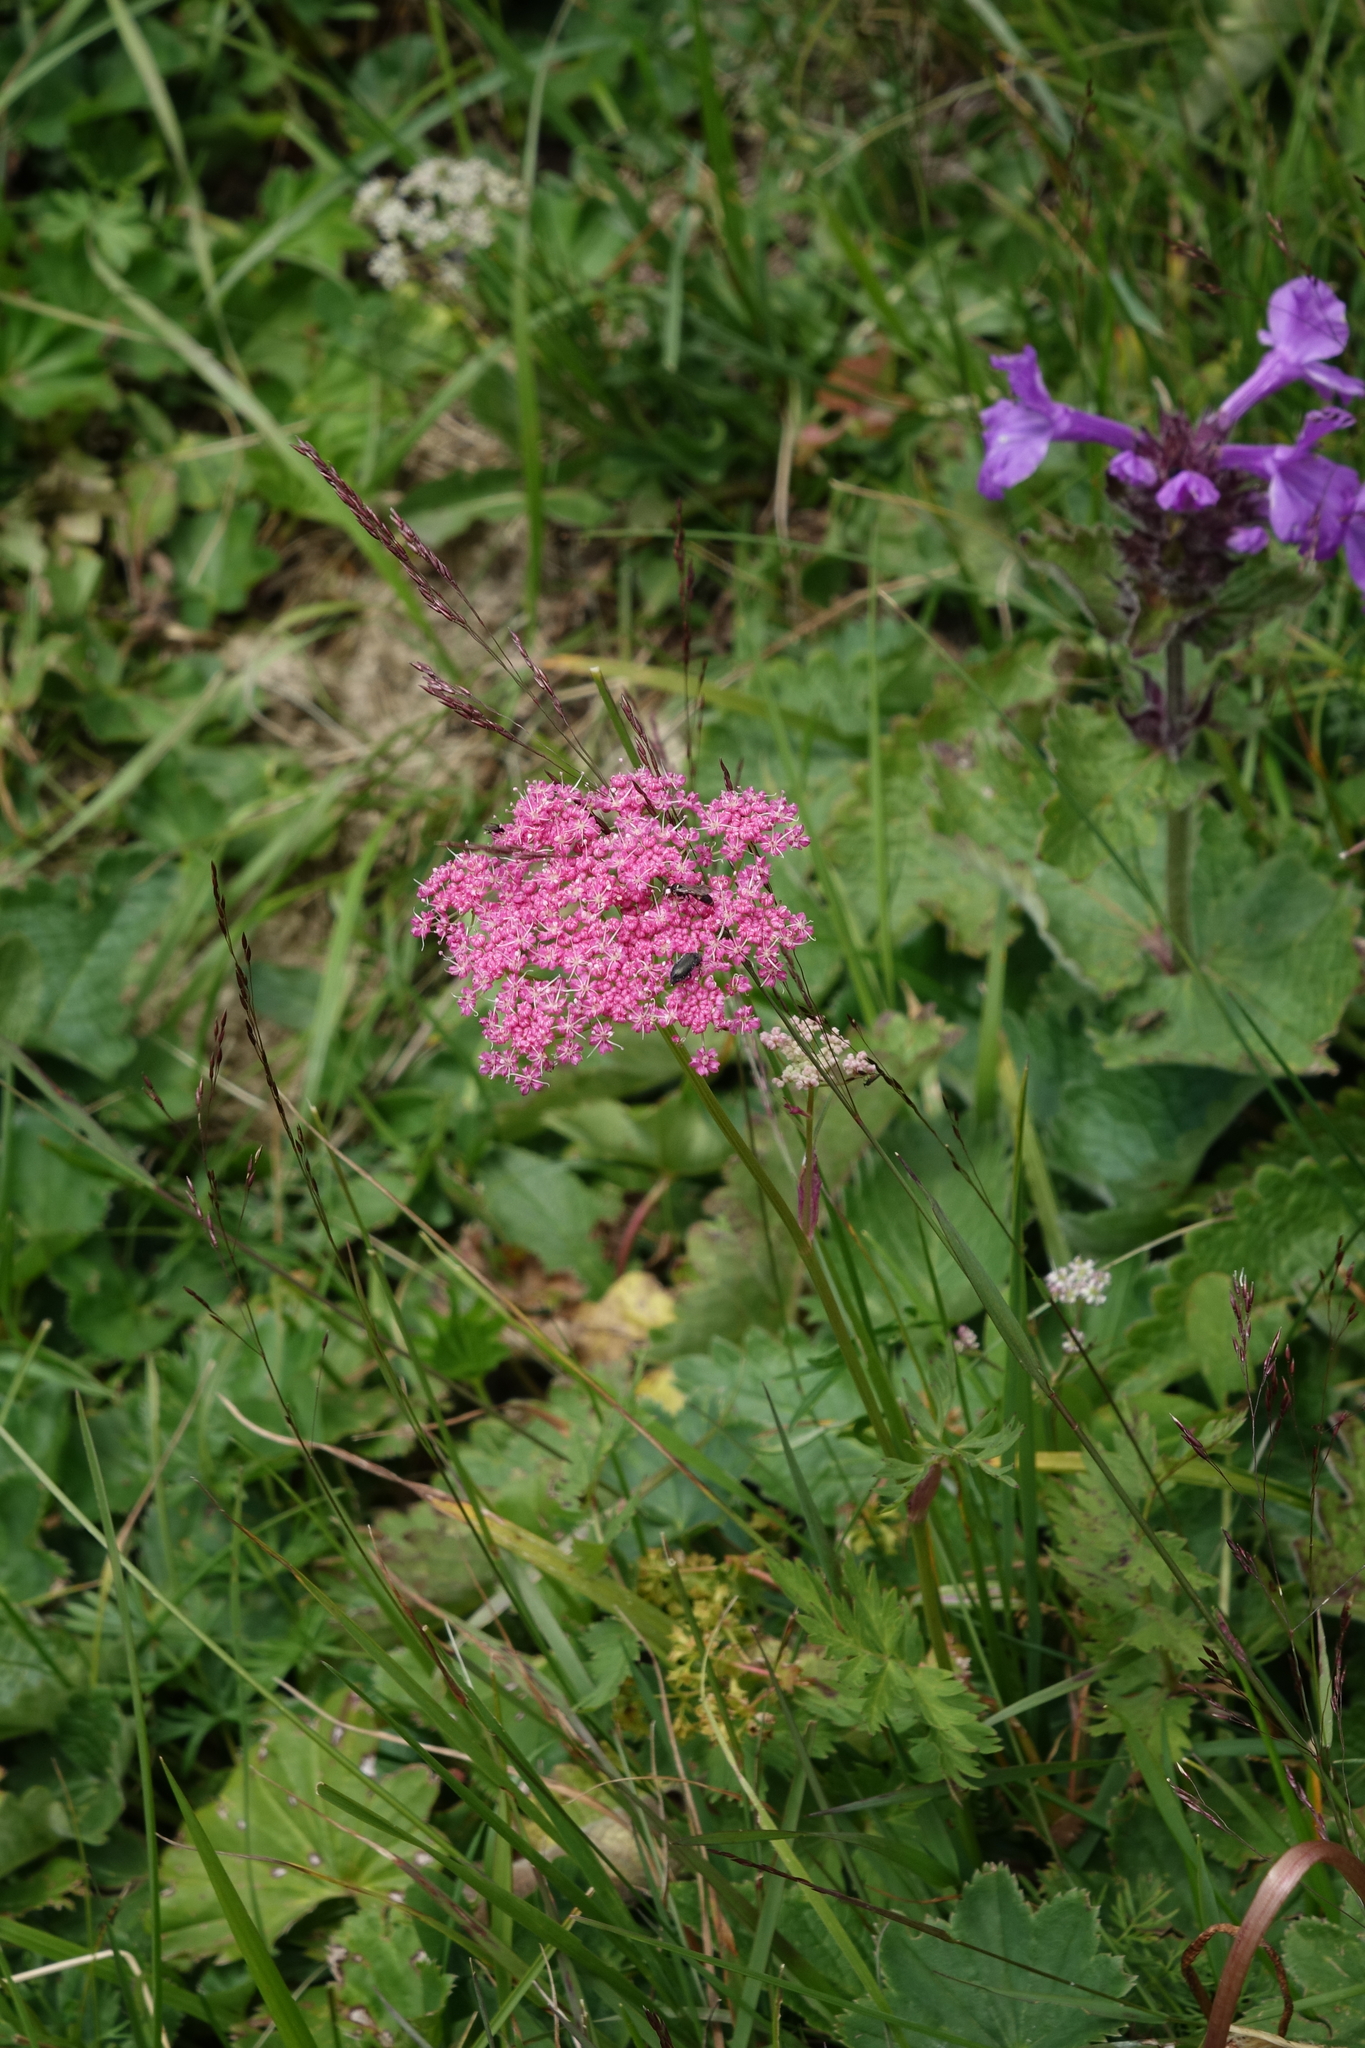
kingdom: Plantae
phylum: Tracheophyta
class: Magnoliopsida
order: Apiales
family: Apiaceae
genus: Pimpinella
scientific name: Pimpinella rhodantha
